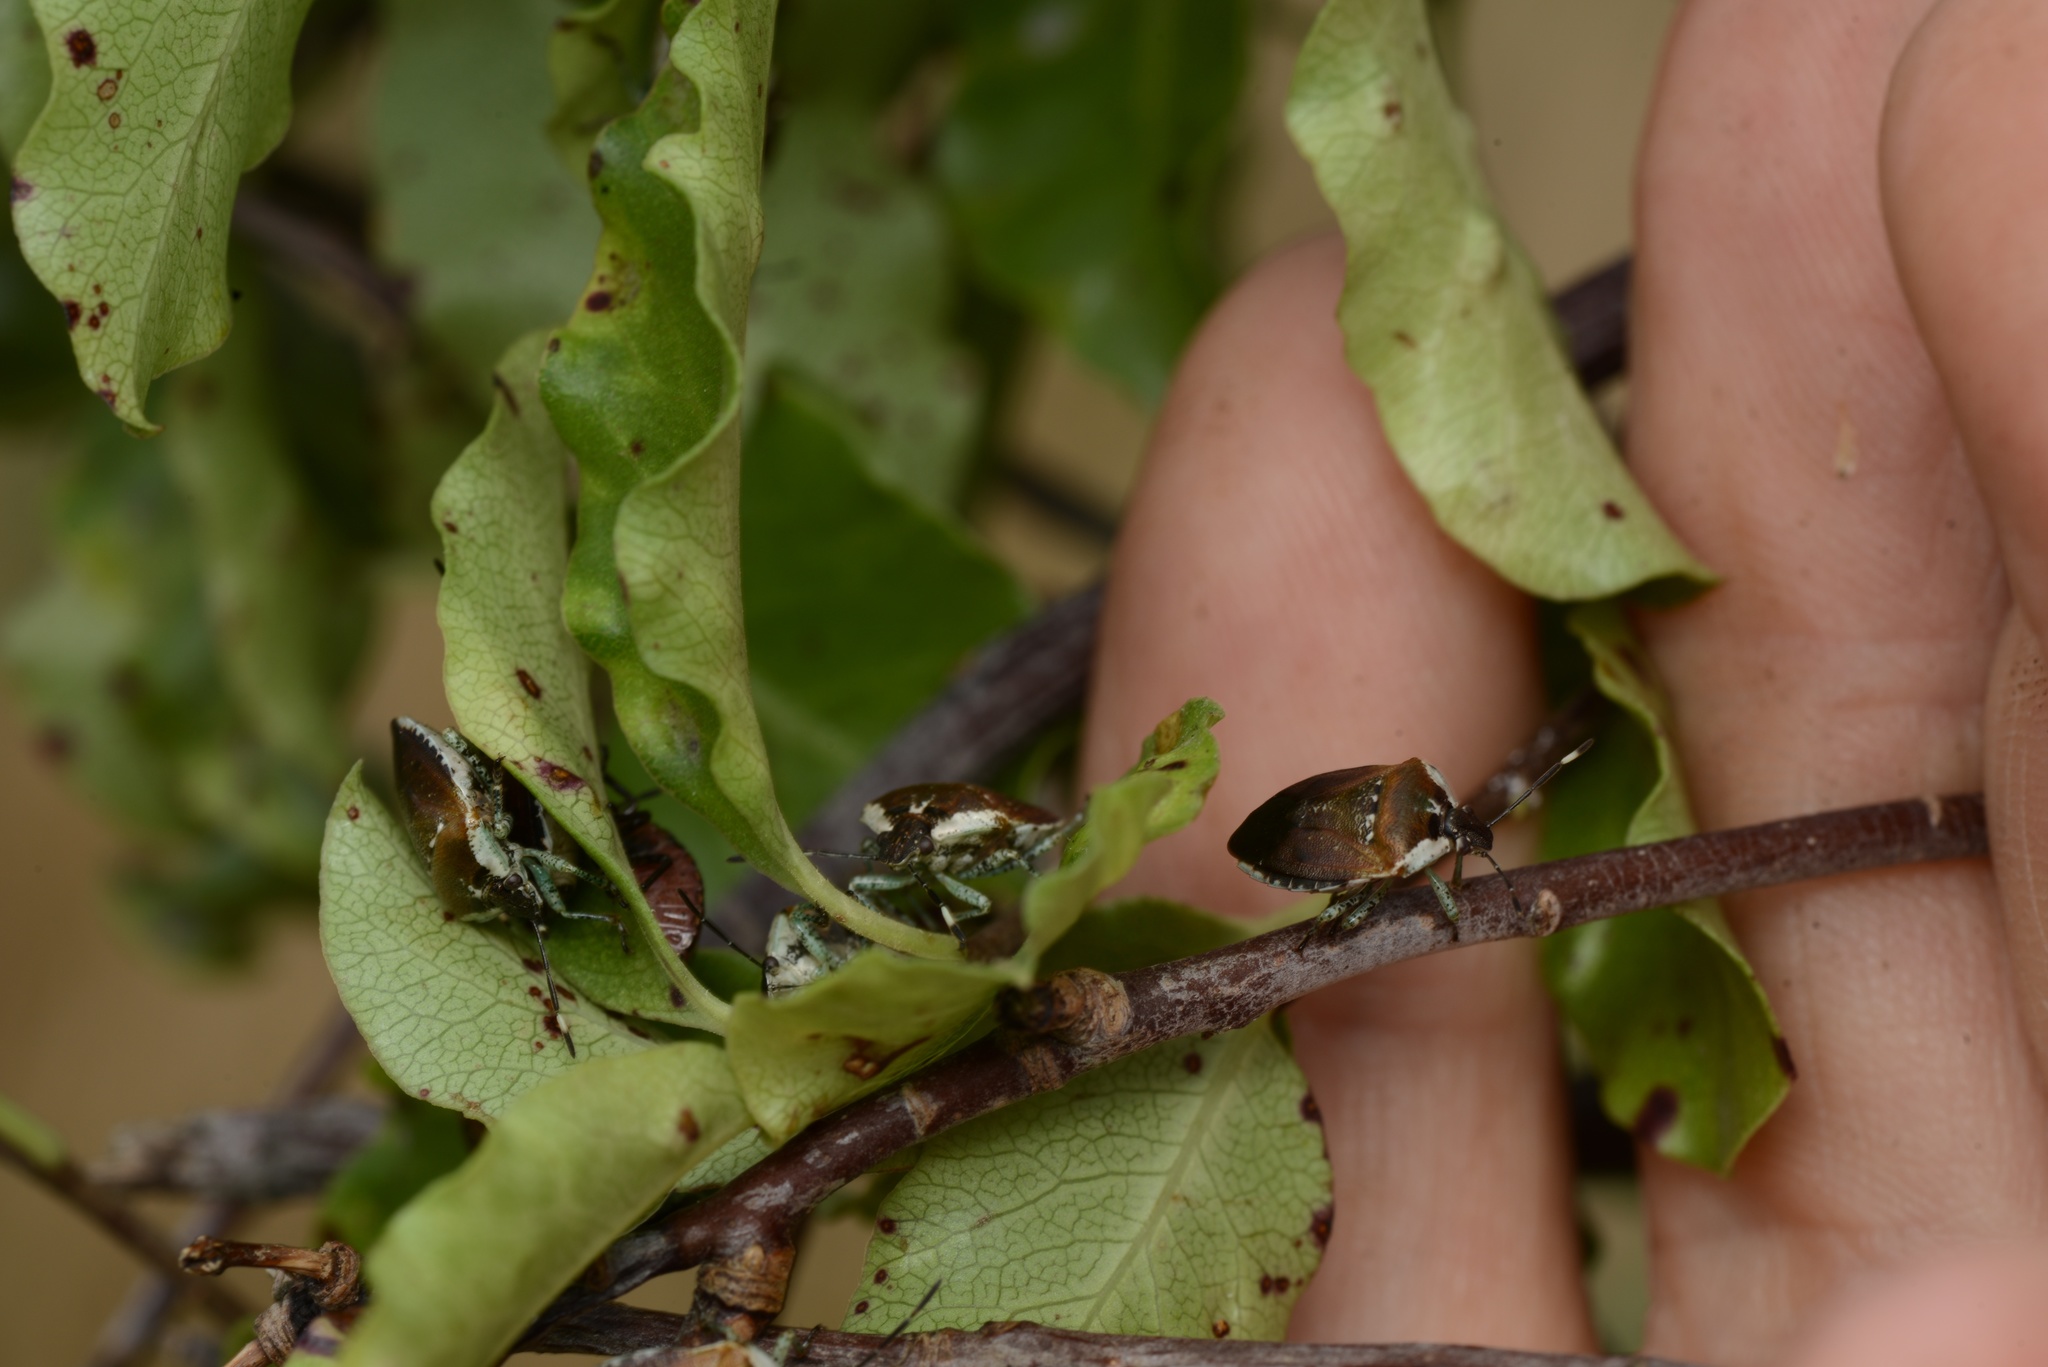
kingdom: Plantae
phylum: Tracheophyta
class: Magnoliopsida
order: Apiales
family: Pittosporaceae
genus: Pittosporum
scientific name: Pittosporum tenuifolium
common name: Kohuhu
